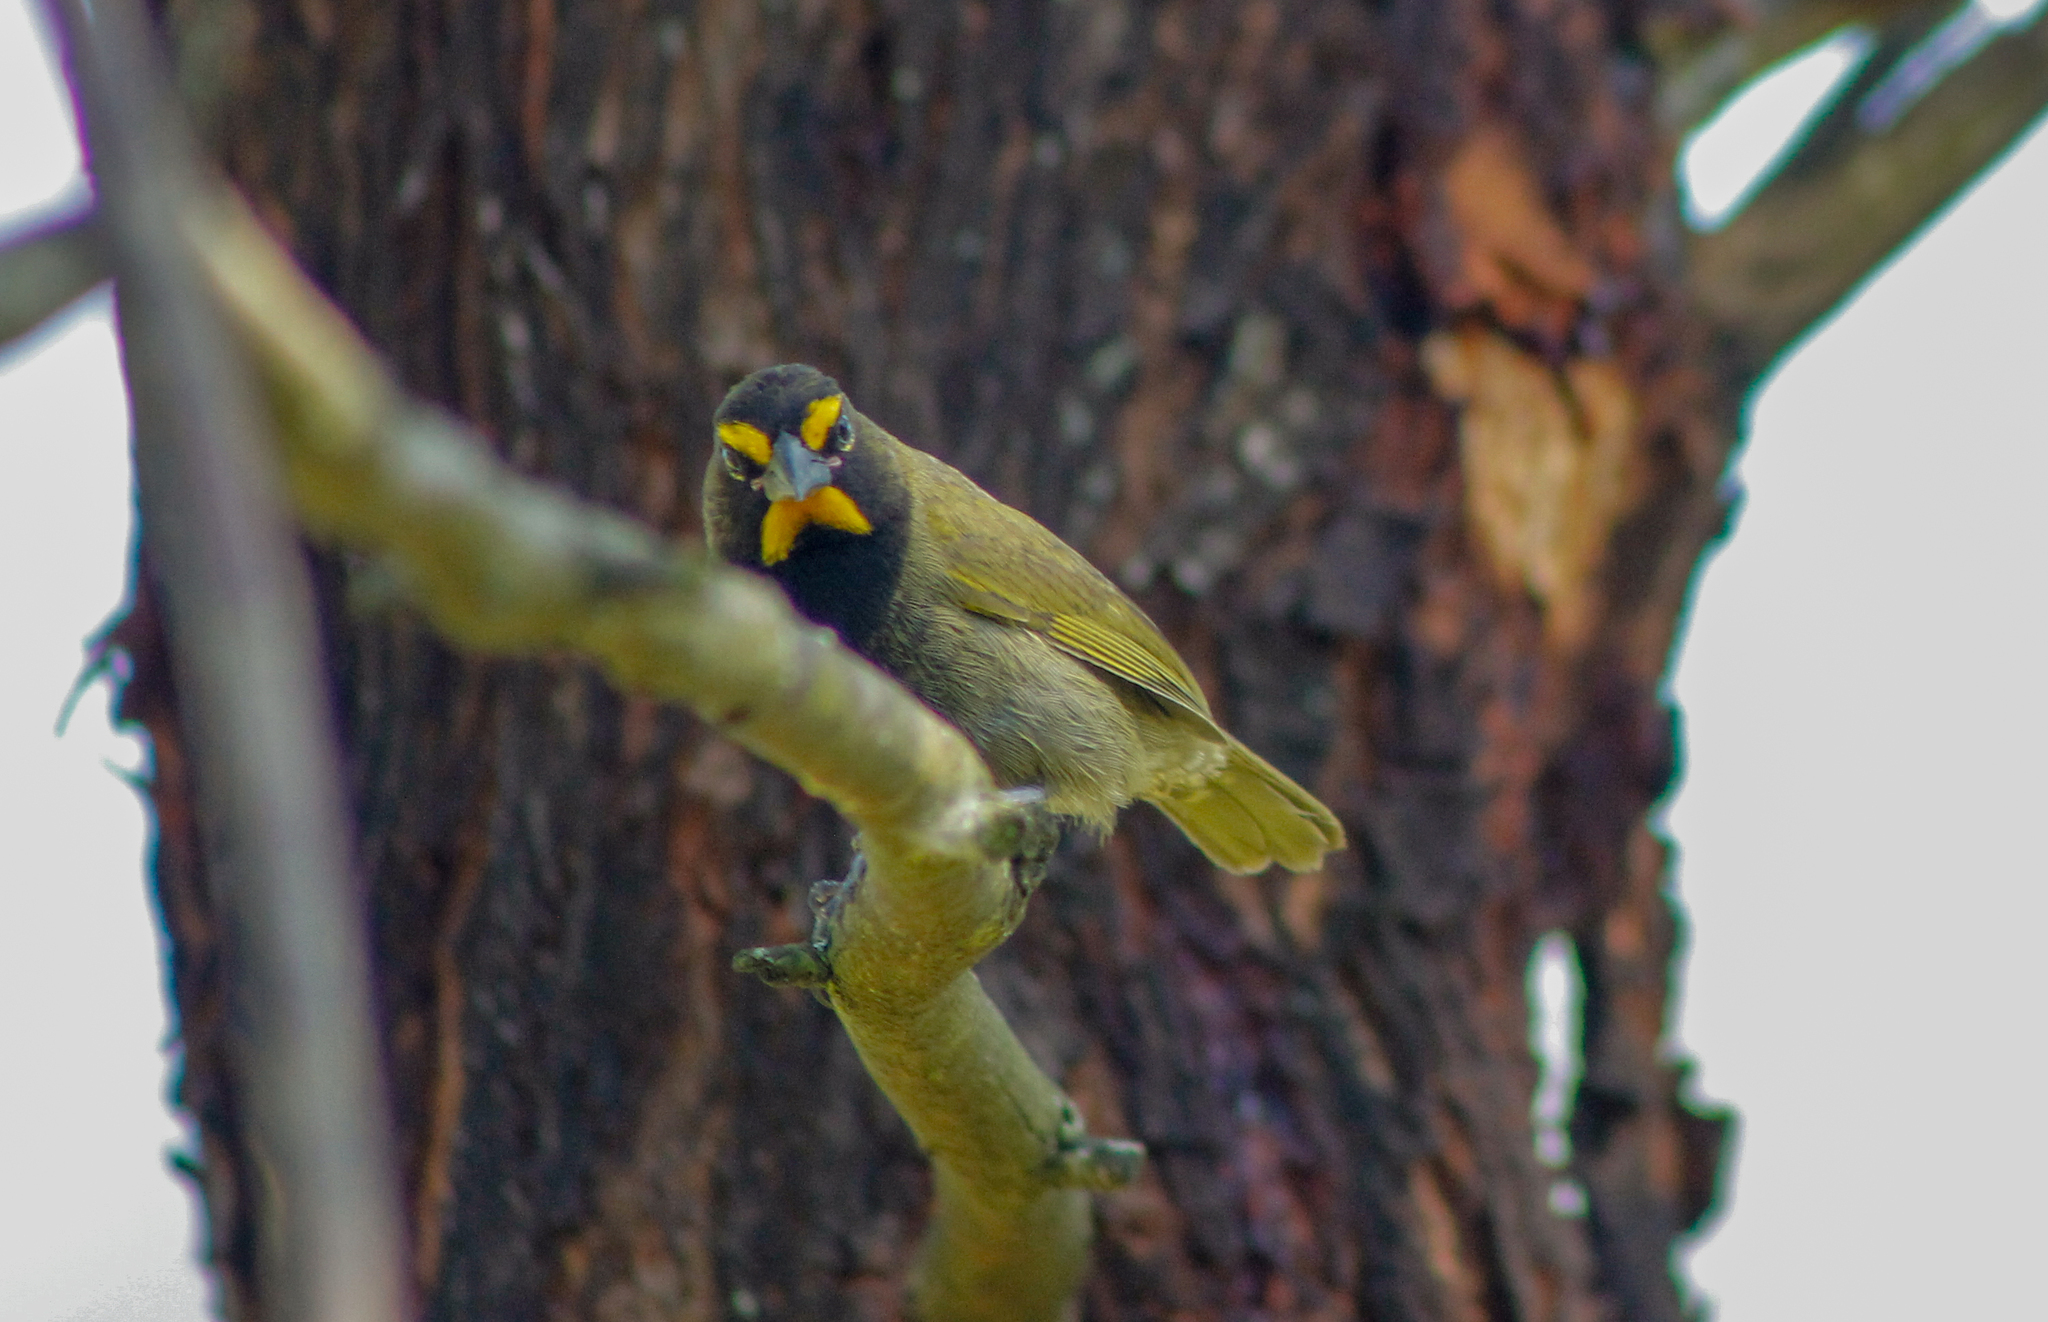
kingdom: Animalia
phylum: Chordata
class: Aves
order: Passeriformes
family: Thraupidae
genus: Tiaris
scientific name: Tiaris olivaceus
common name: Yellow-faced grassquit
